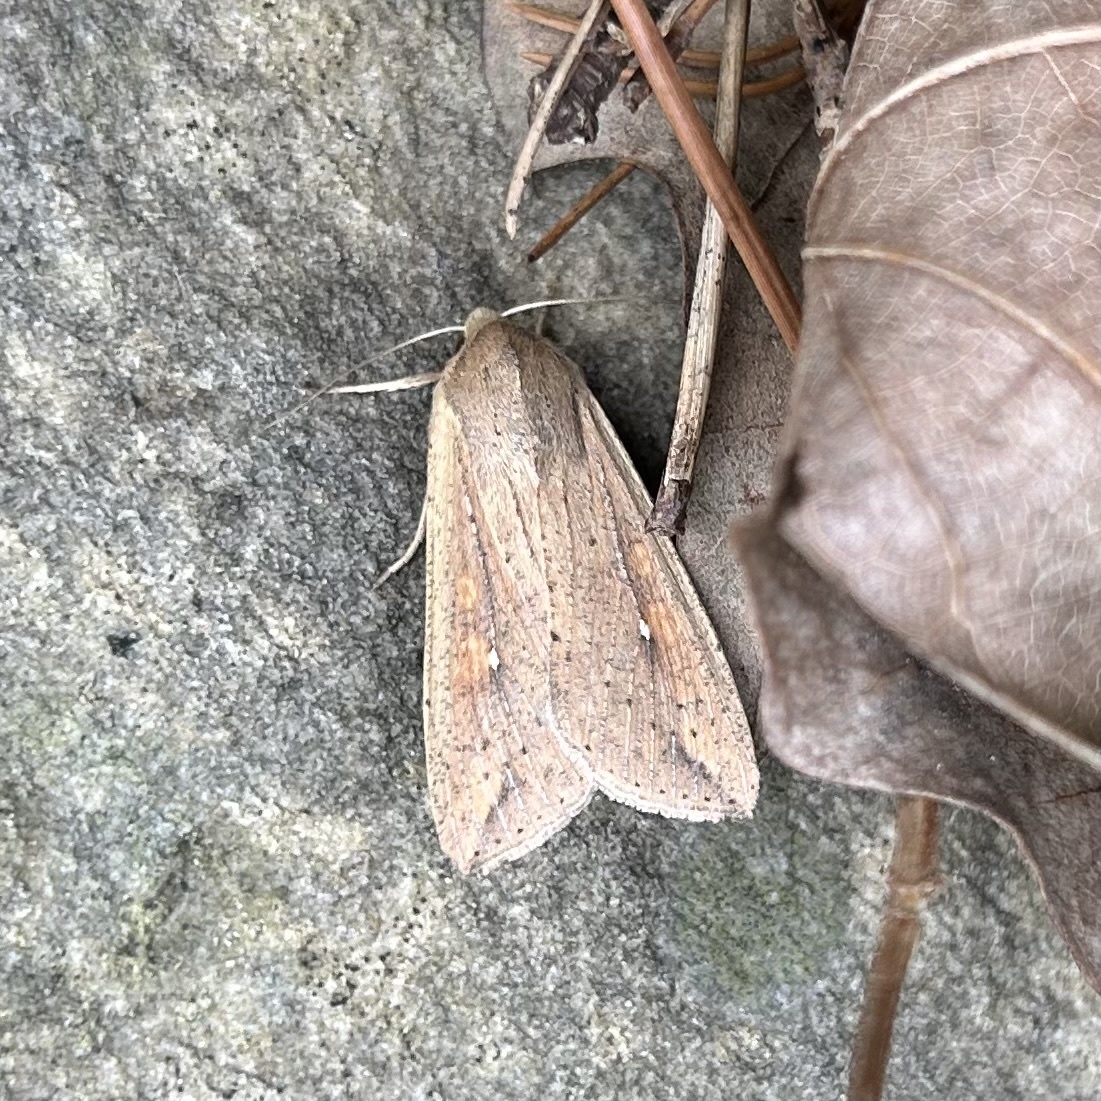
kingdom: Animalia
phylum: Arthropoda
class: Insecta
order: Lepidoptera
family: Noctuidae
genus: Mythimna
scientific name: Mythimna unipuncta
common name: White-speck
